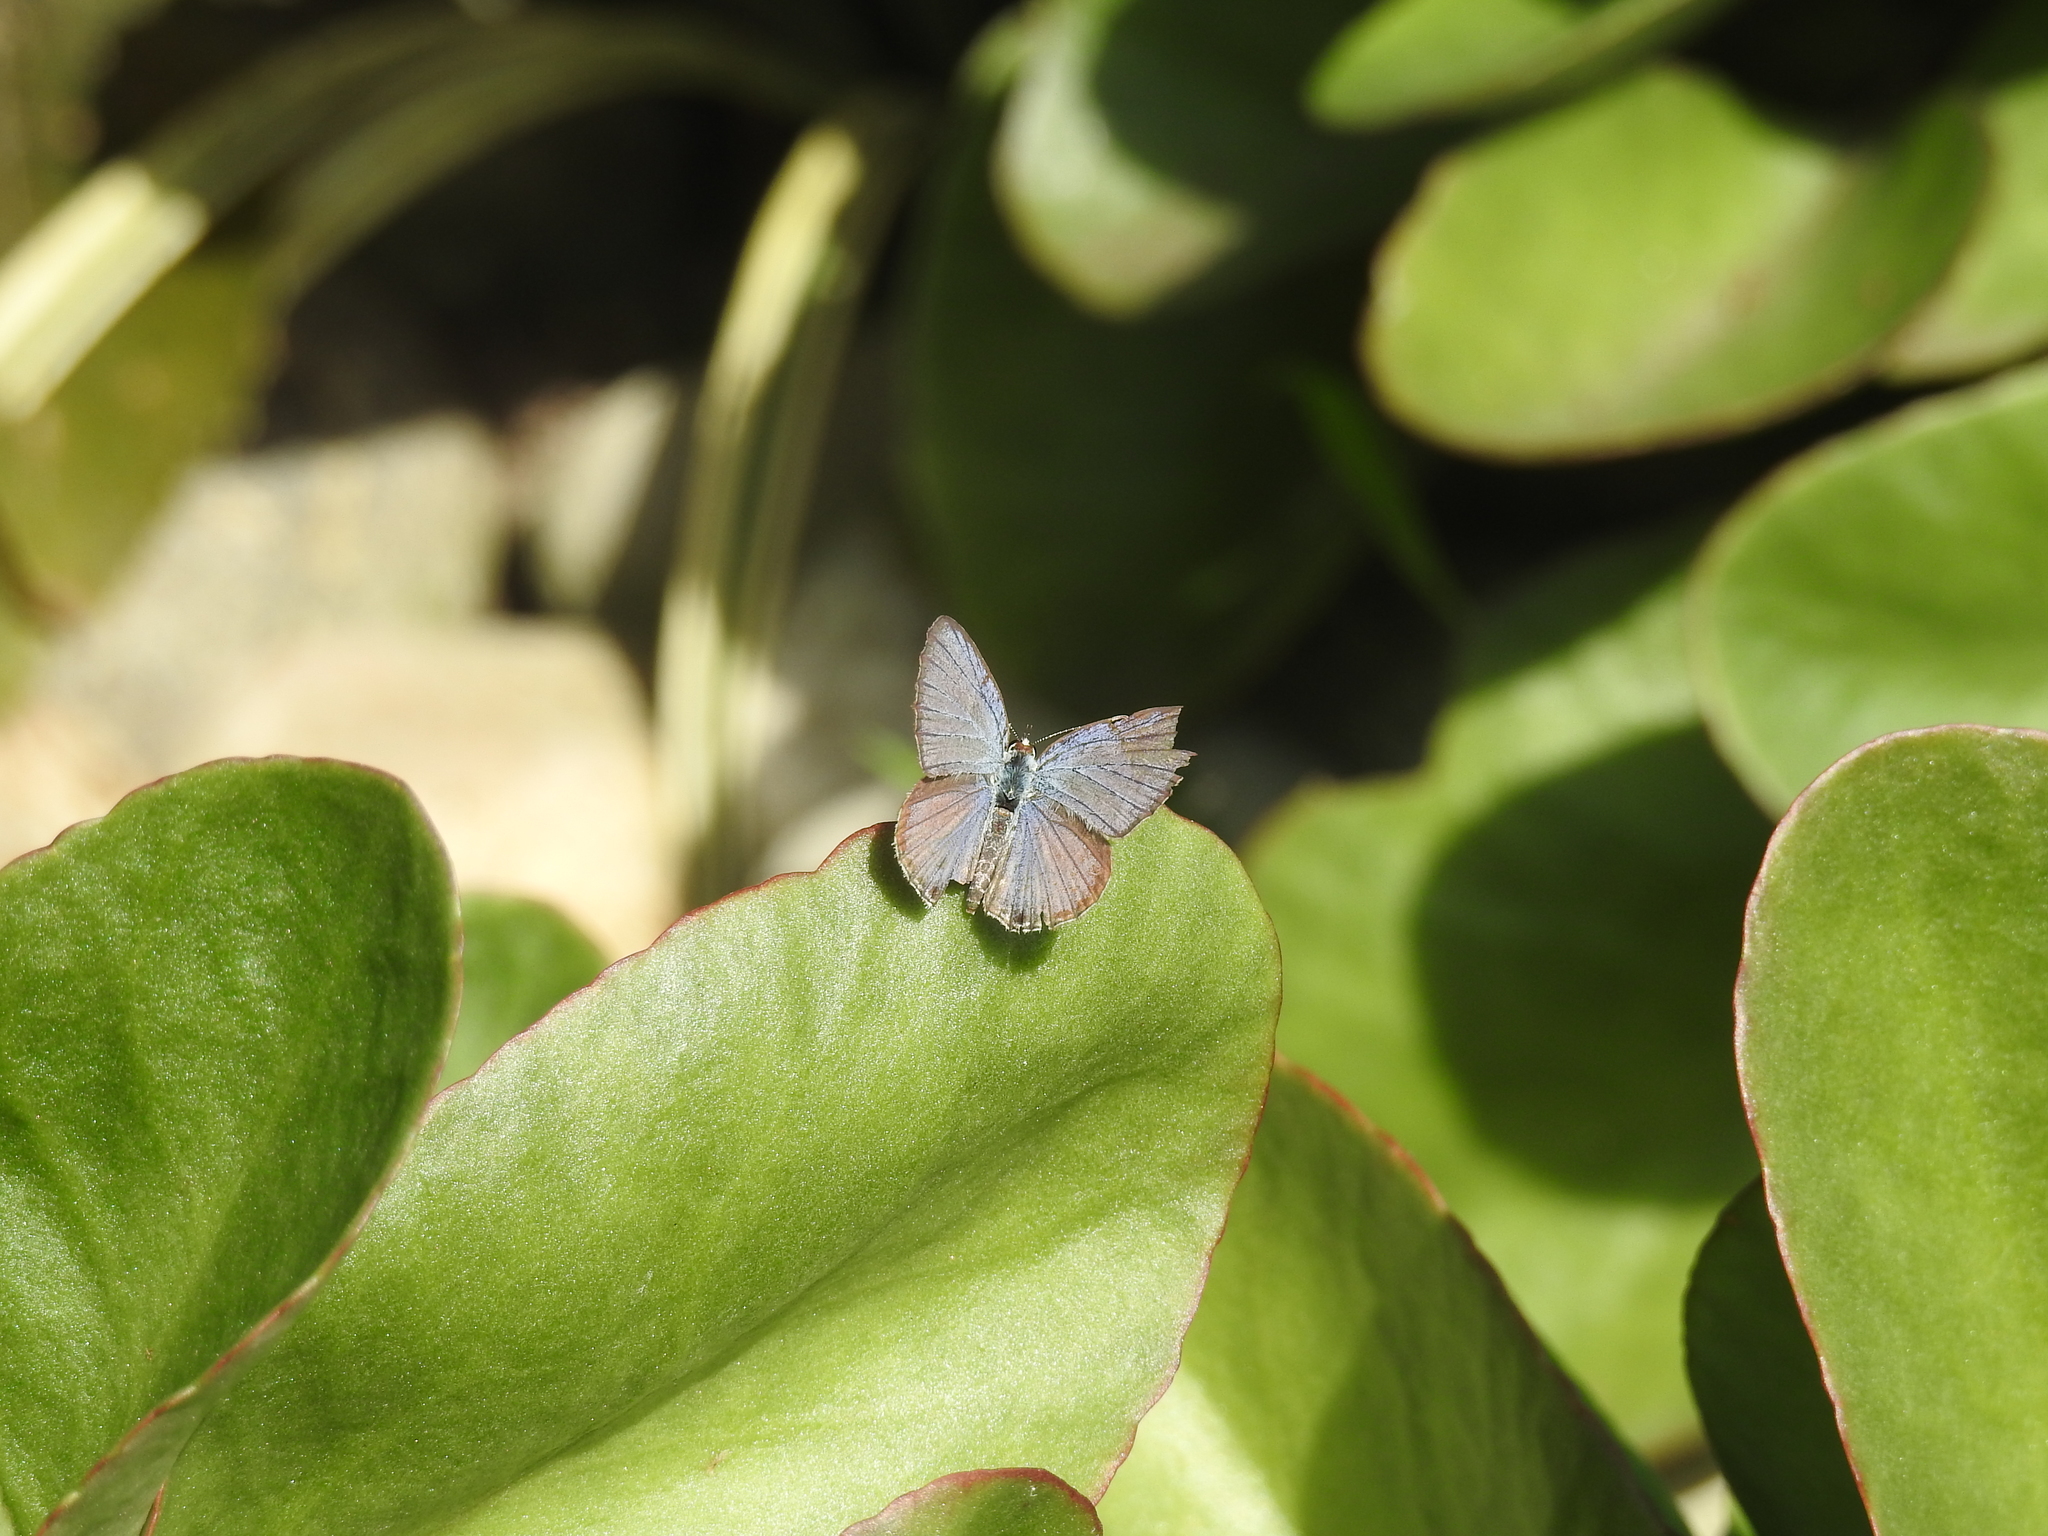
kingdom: Animalia
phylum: Arthropoda
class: Insecta
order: Lepidoptera
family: Lycaenidae
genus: Luthrodes
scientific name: Luthrodes pandava
